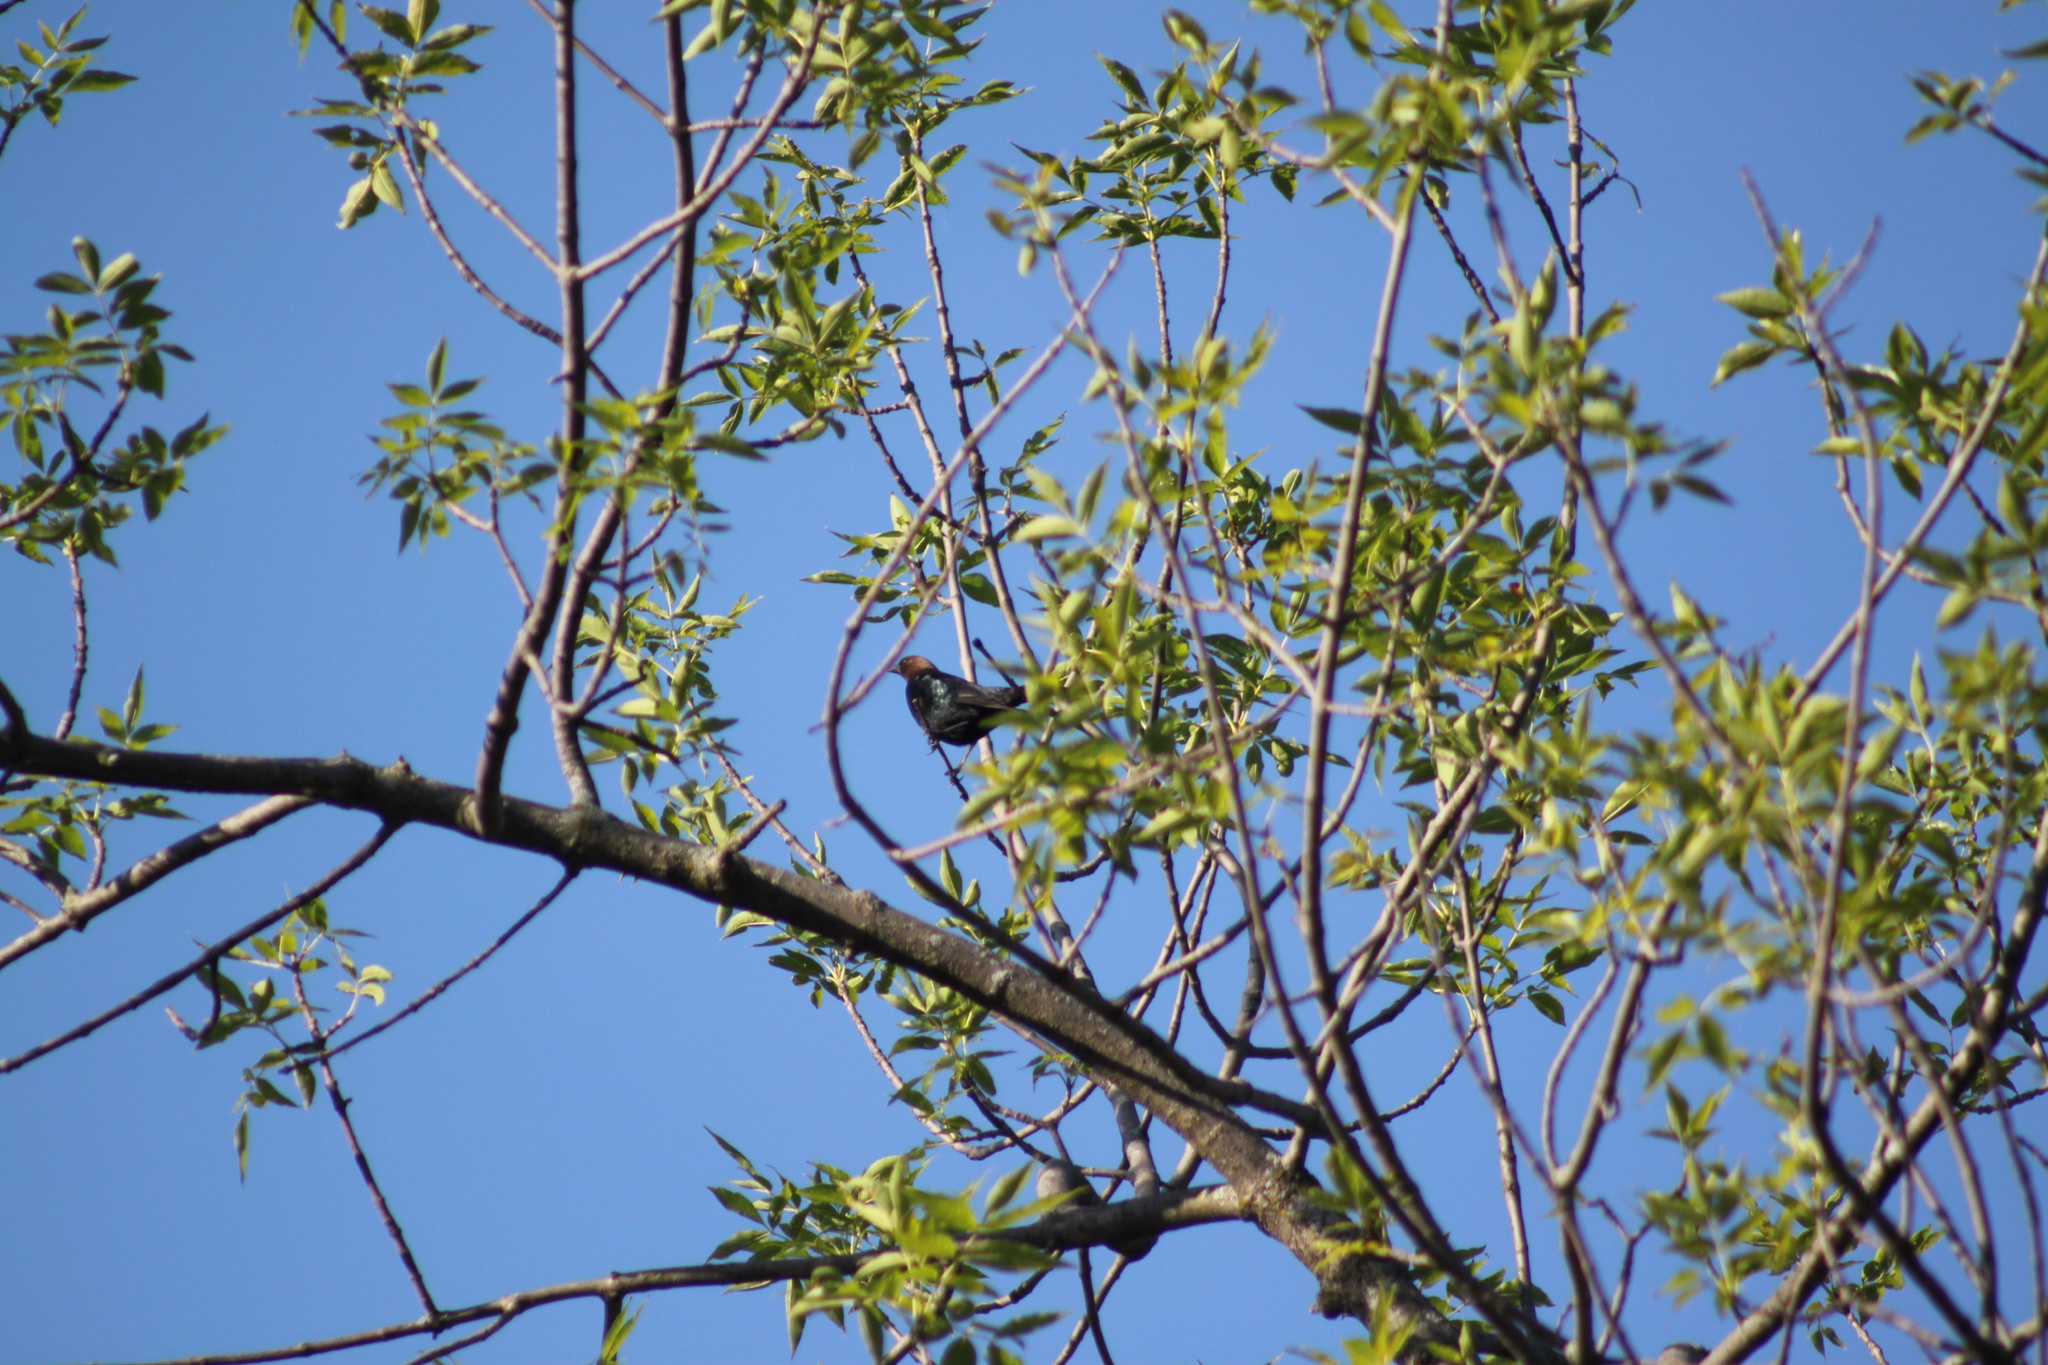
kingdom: Animalia
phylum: Chordata
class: Aves
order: Passeriformes
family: Icteridae
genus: Molothrus
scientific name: Molothrus ater
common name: Brown-headed cowbird
